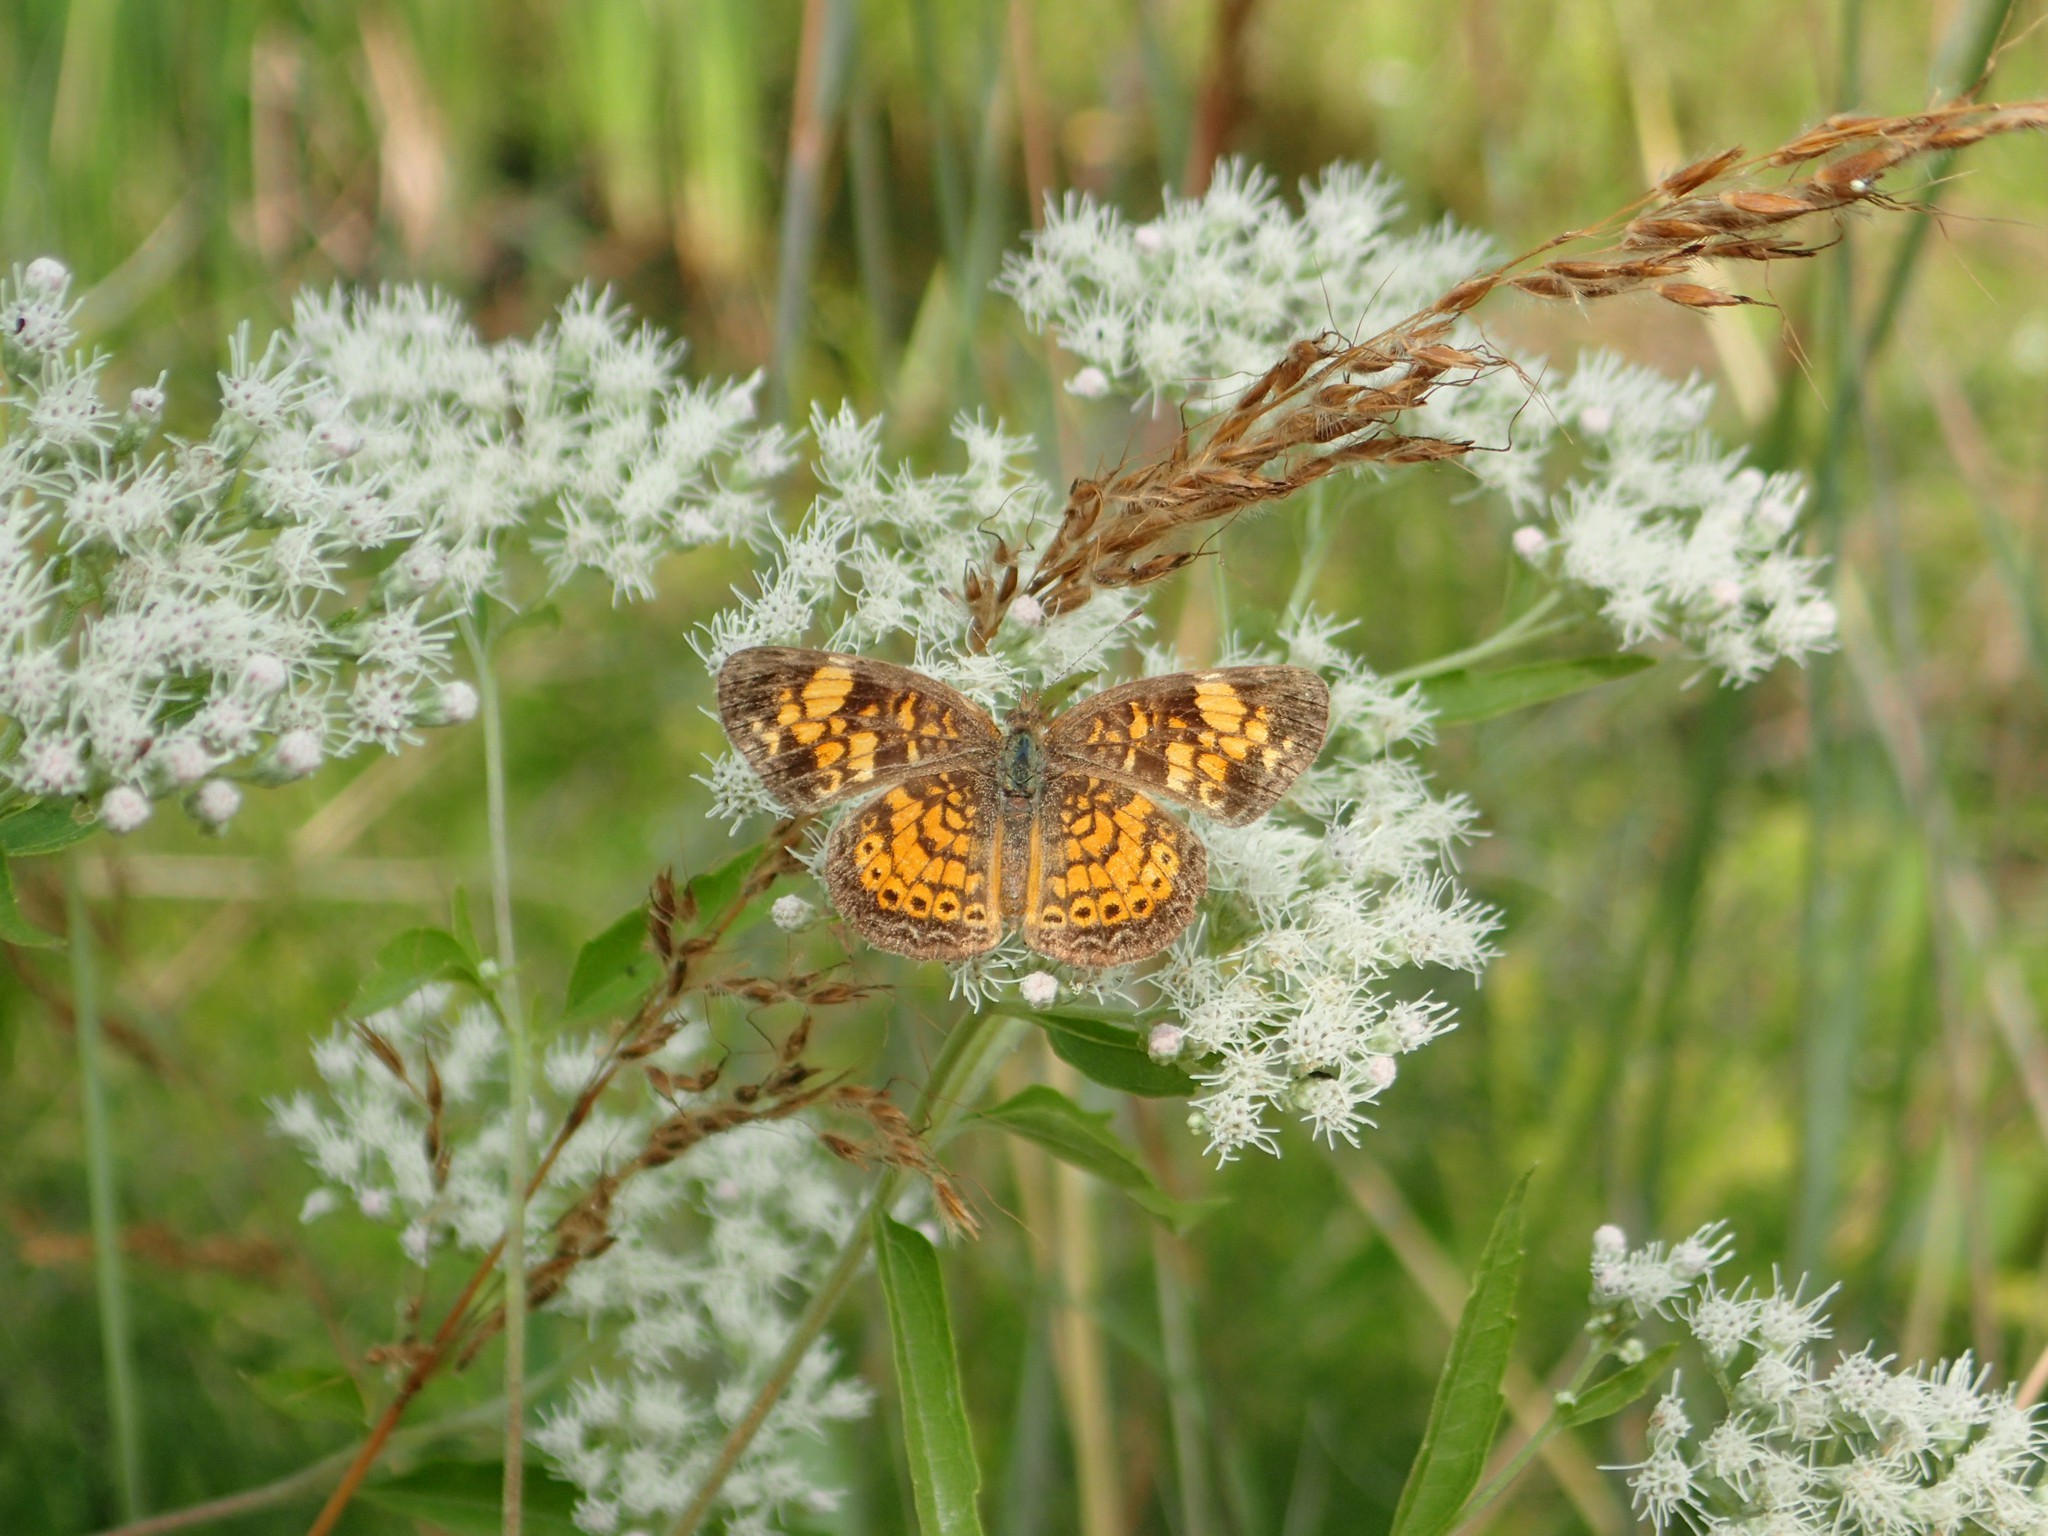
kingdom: Animalia
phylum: Arthropoda
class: Insecta
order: Lepidoptera
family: Nymphalidae
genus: Phyciodes
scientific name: Phyciodes tharos
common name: Pearl crescent
